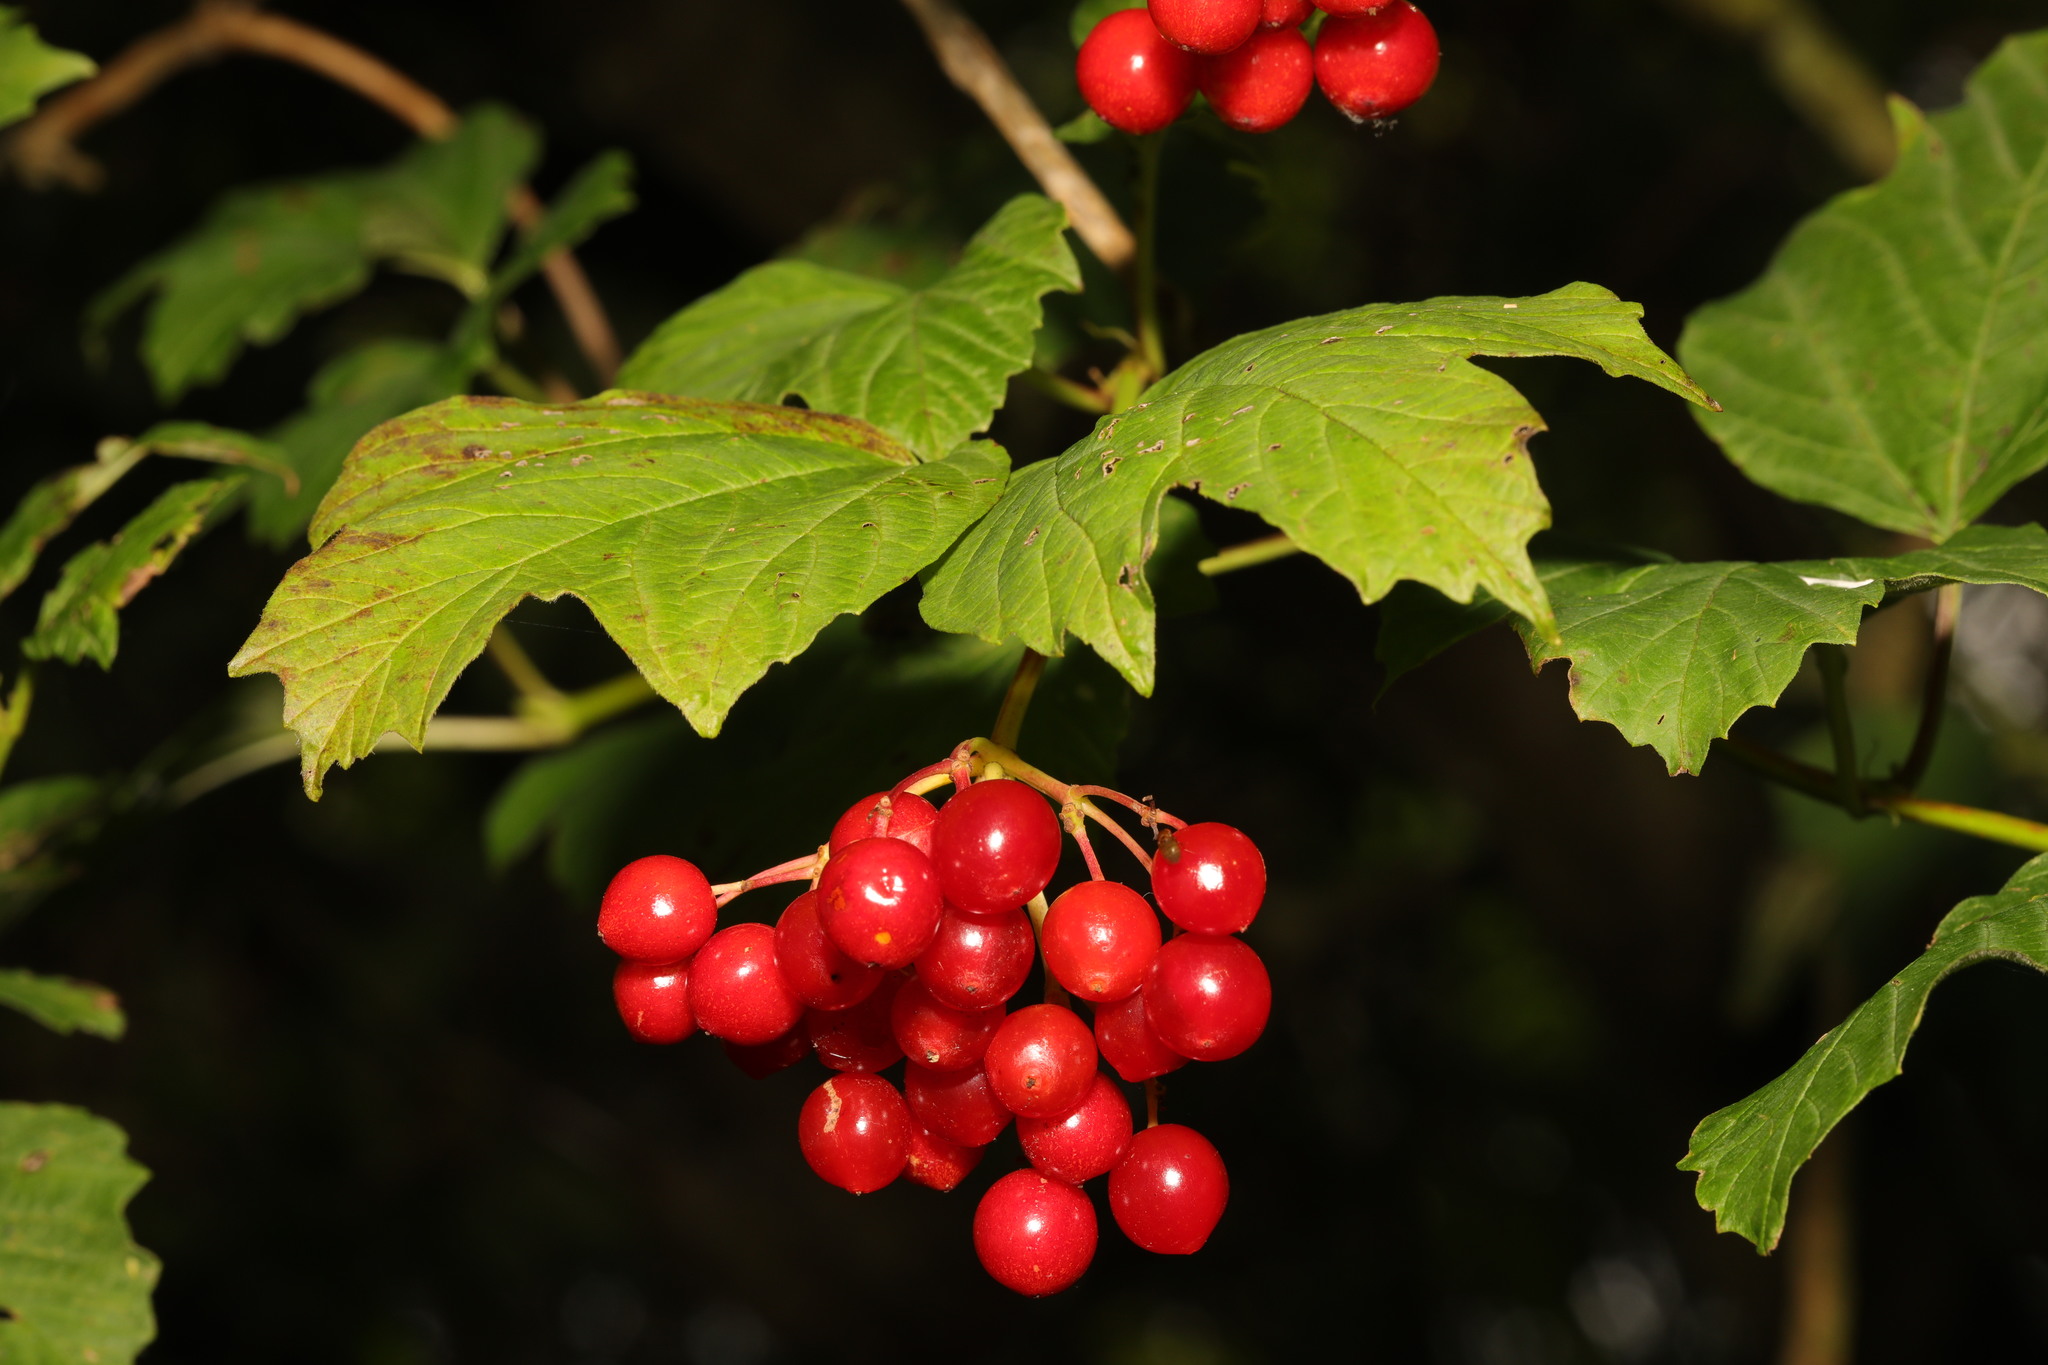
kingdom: Plantae
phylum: Tracheophyta
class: Magnoliopsida
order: Dipsacales
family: Viburnaceae
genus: Viburnum
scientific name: Viburnum opulus
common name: Guelder-rose
